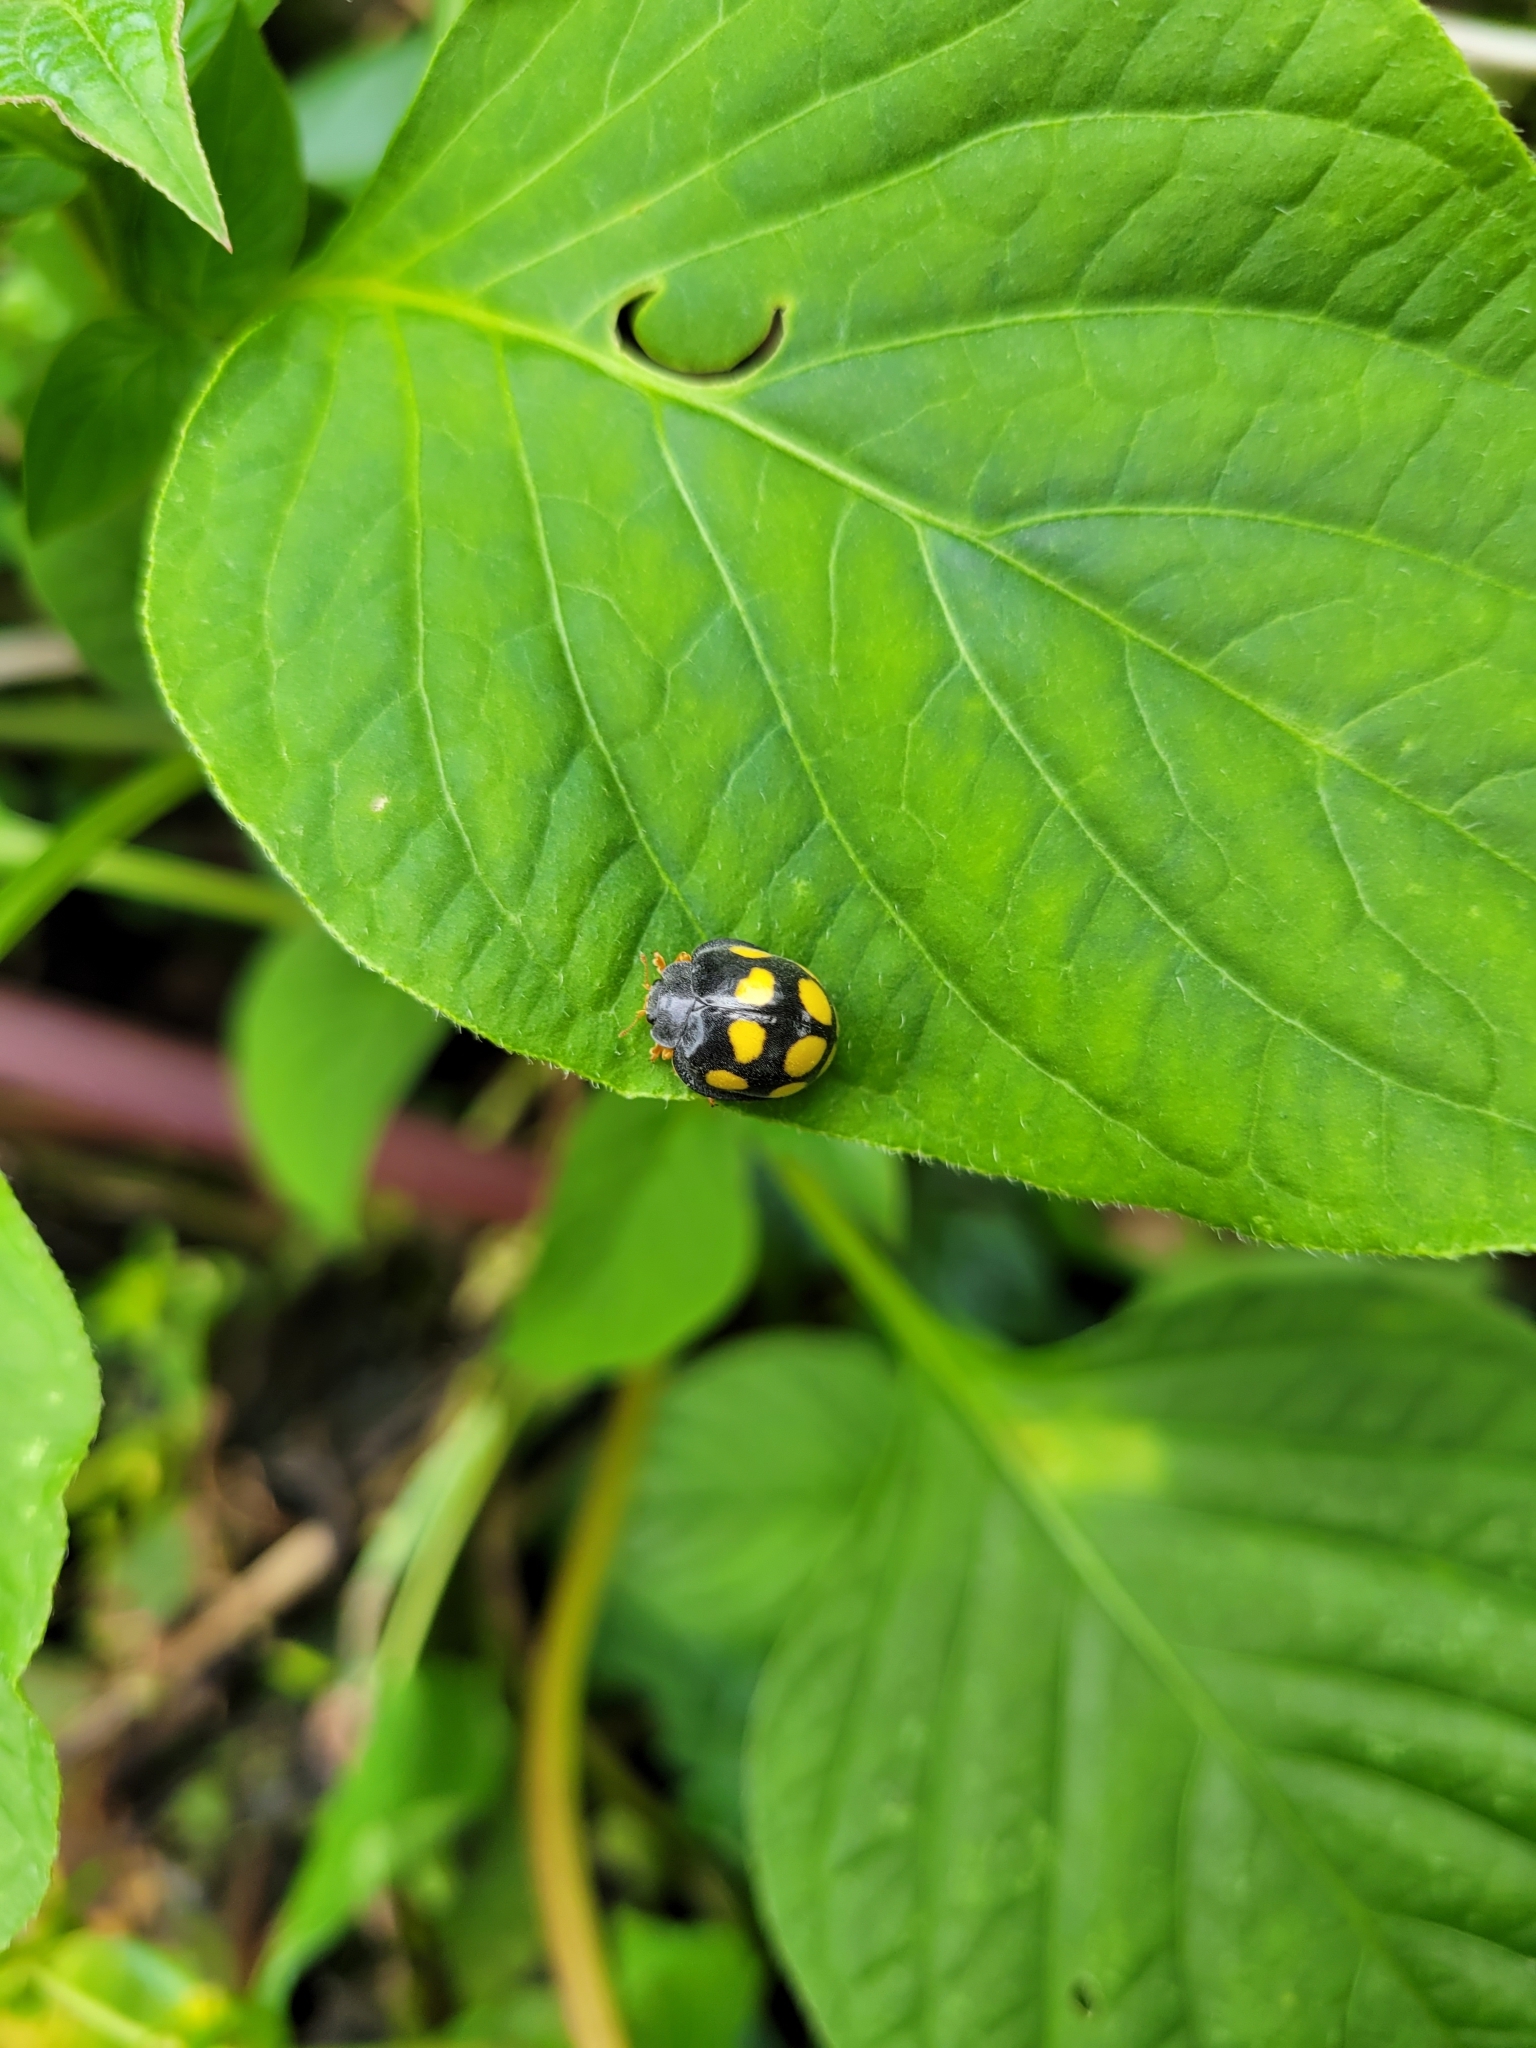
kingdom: Animalia
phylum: Arthropoda
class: Insecta
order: Coleoptera
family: Coccinellidae
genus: Epilachna
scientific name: Epilachna
